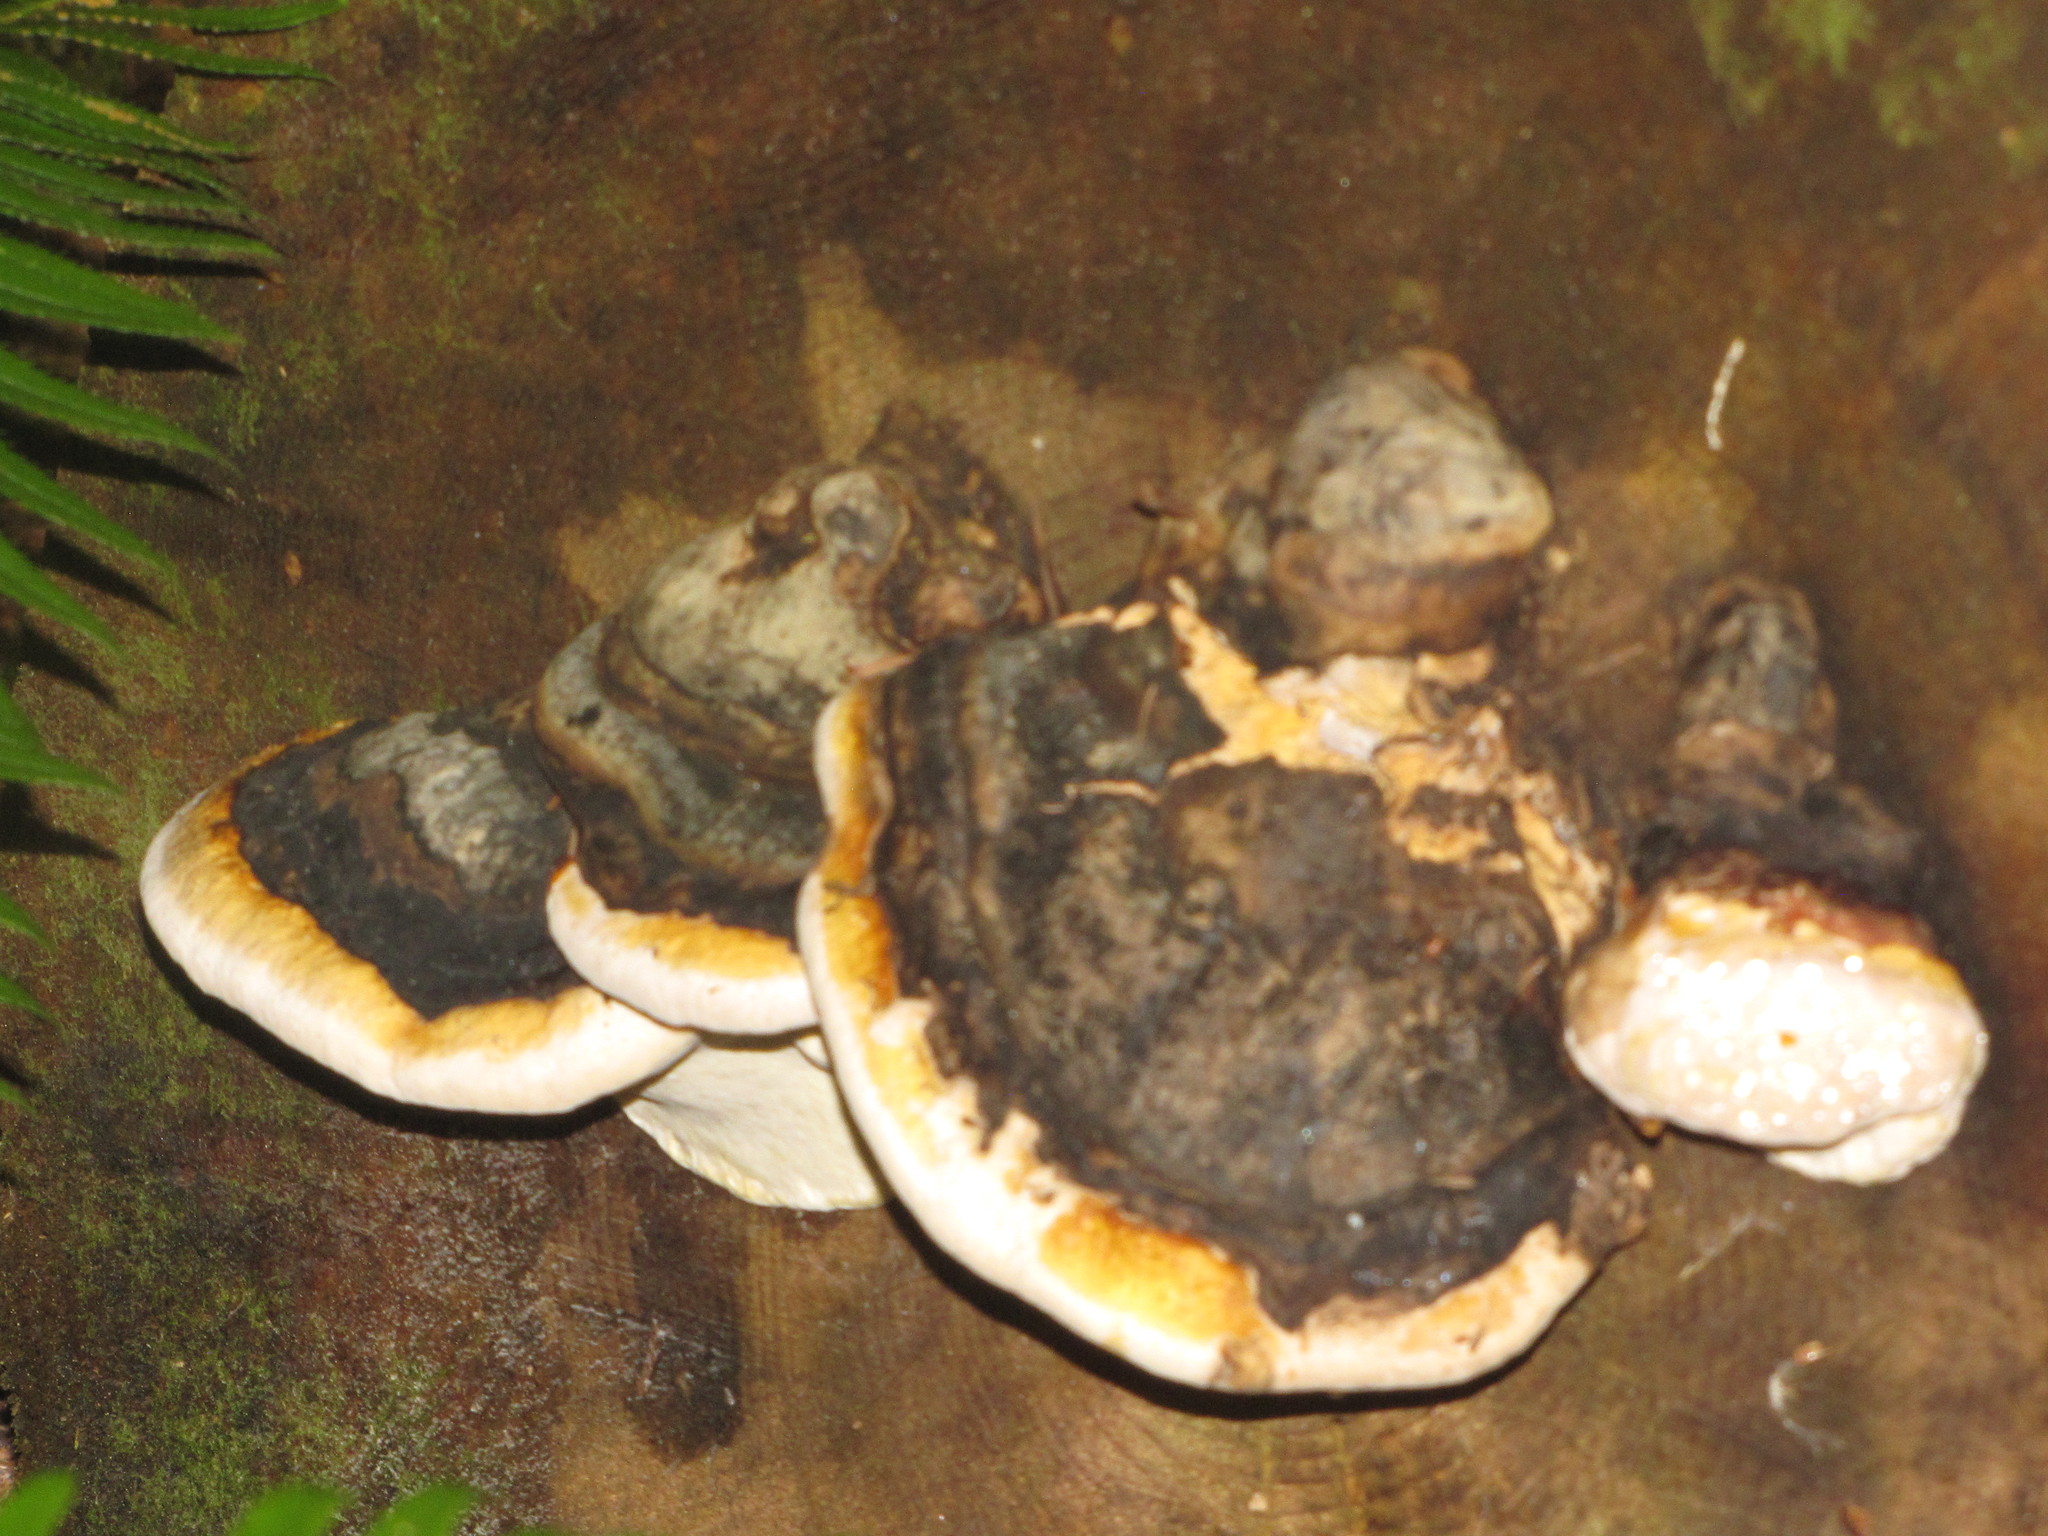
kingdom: Fungi
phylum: Basidiomycota
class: Agaricomycetes
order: Polyporales
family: Fomitopsidaceae
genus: Fomitopsis
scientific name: Fomitopsis mounceae
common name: Northern red belt
